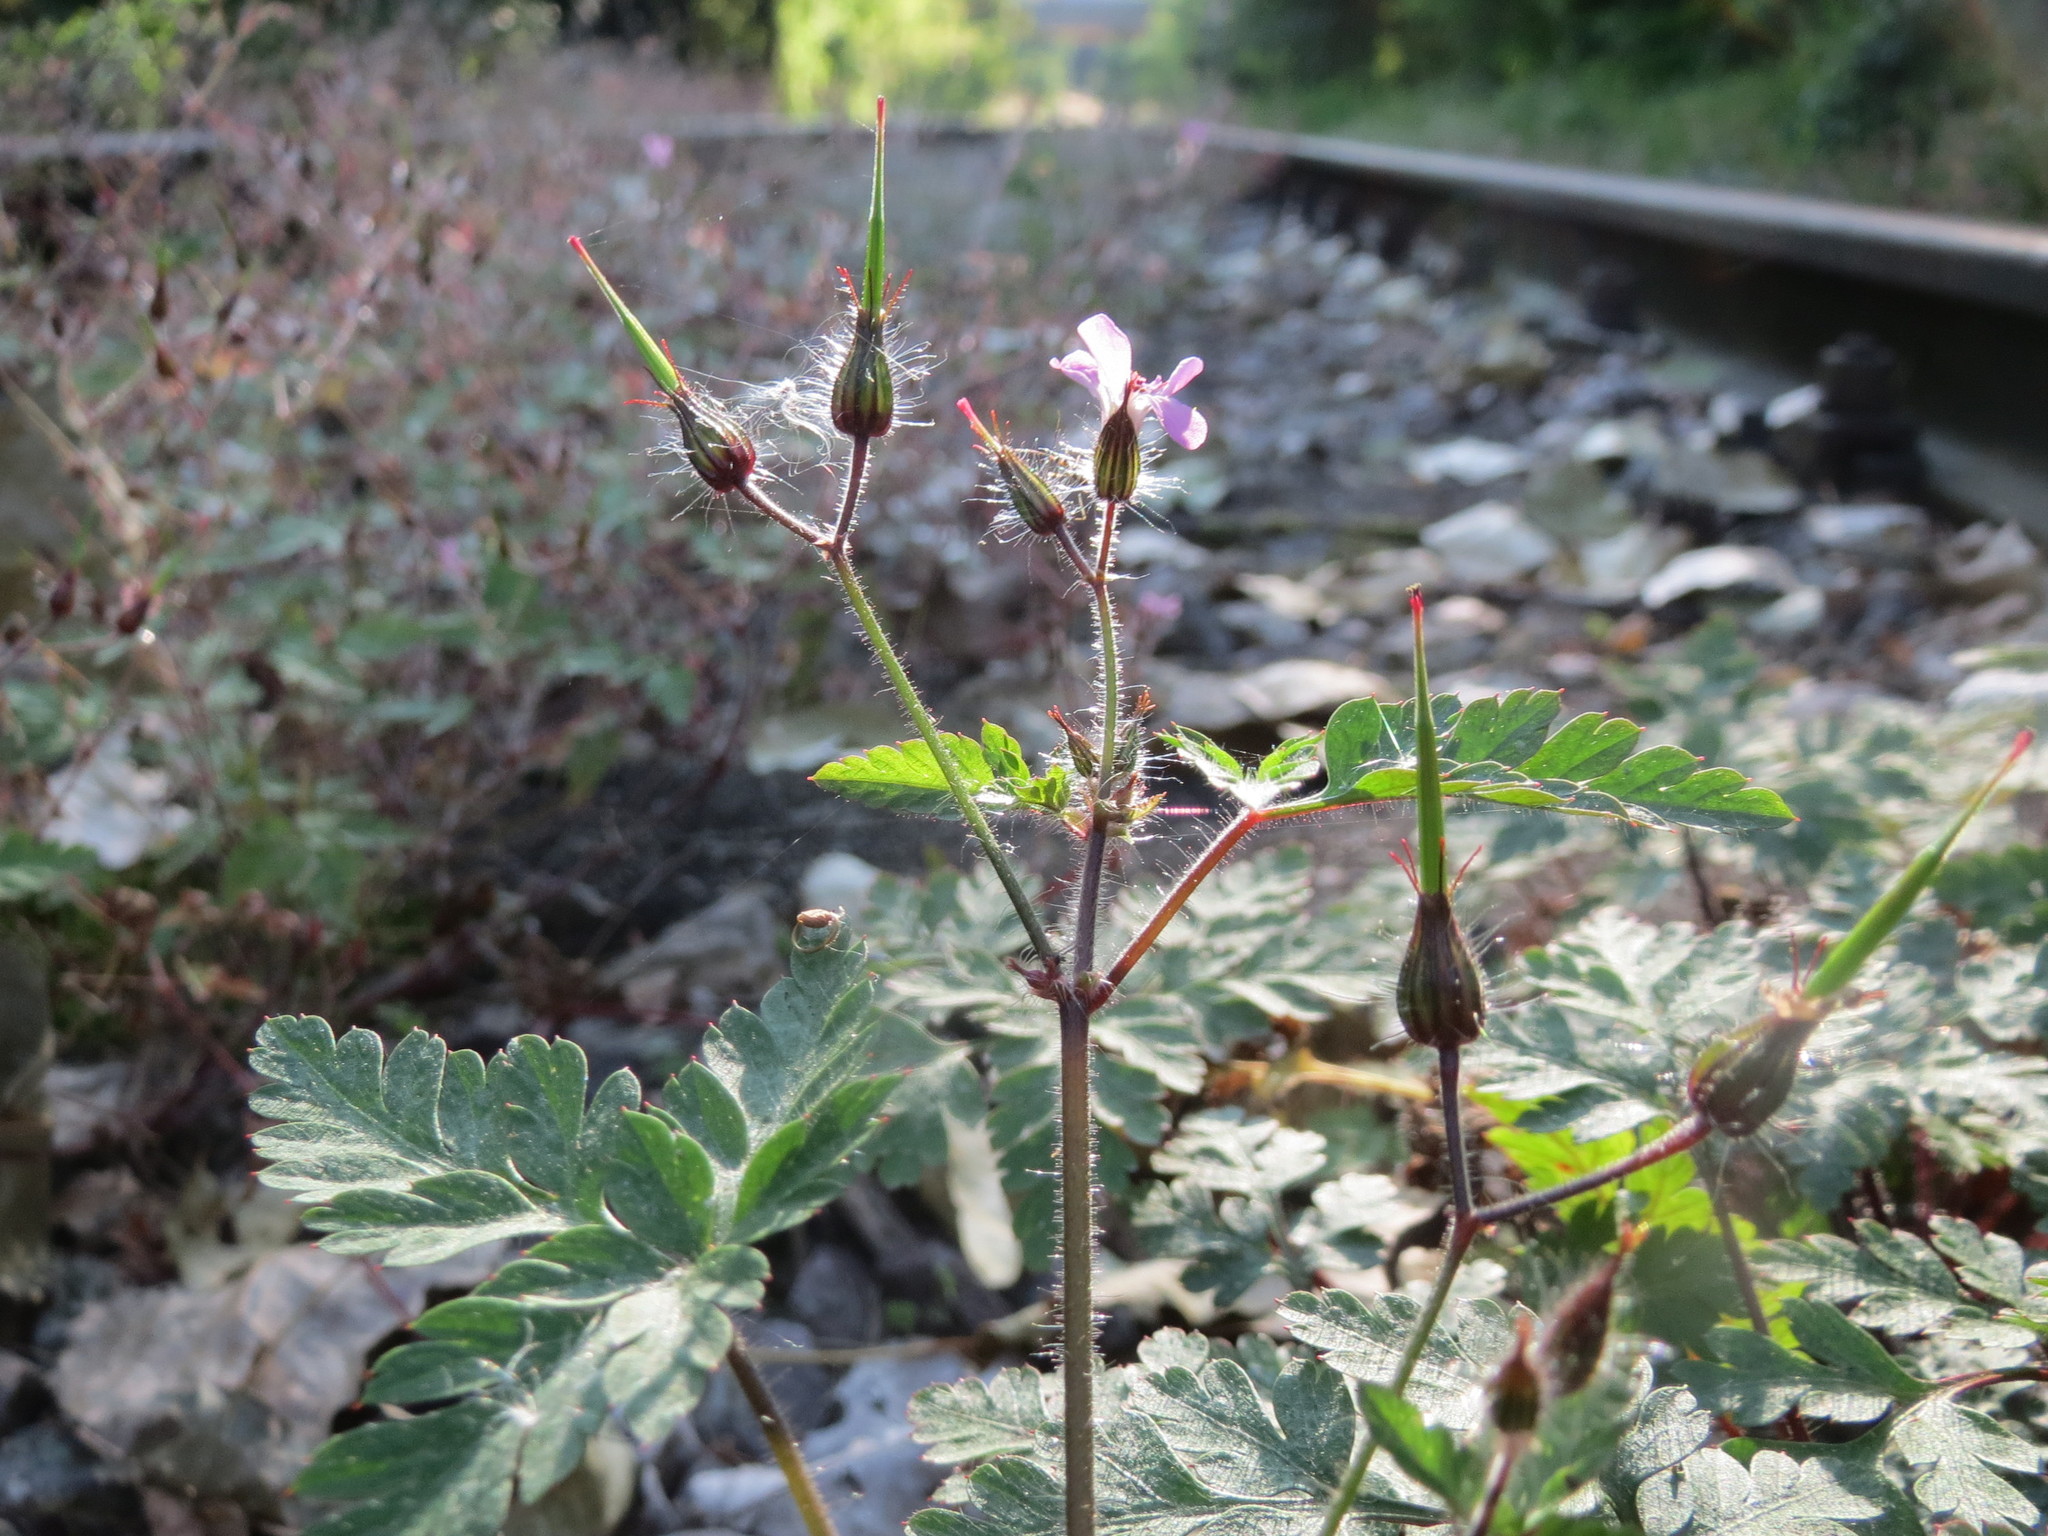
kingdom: Plantae
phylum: Tracheophyta
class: Magnoliopsida
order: Geraniales
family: Geraniaceae
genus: Geranium
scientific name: Geranium robertianum
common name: Herb-robert
